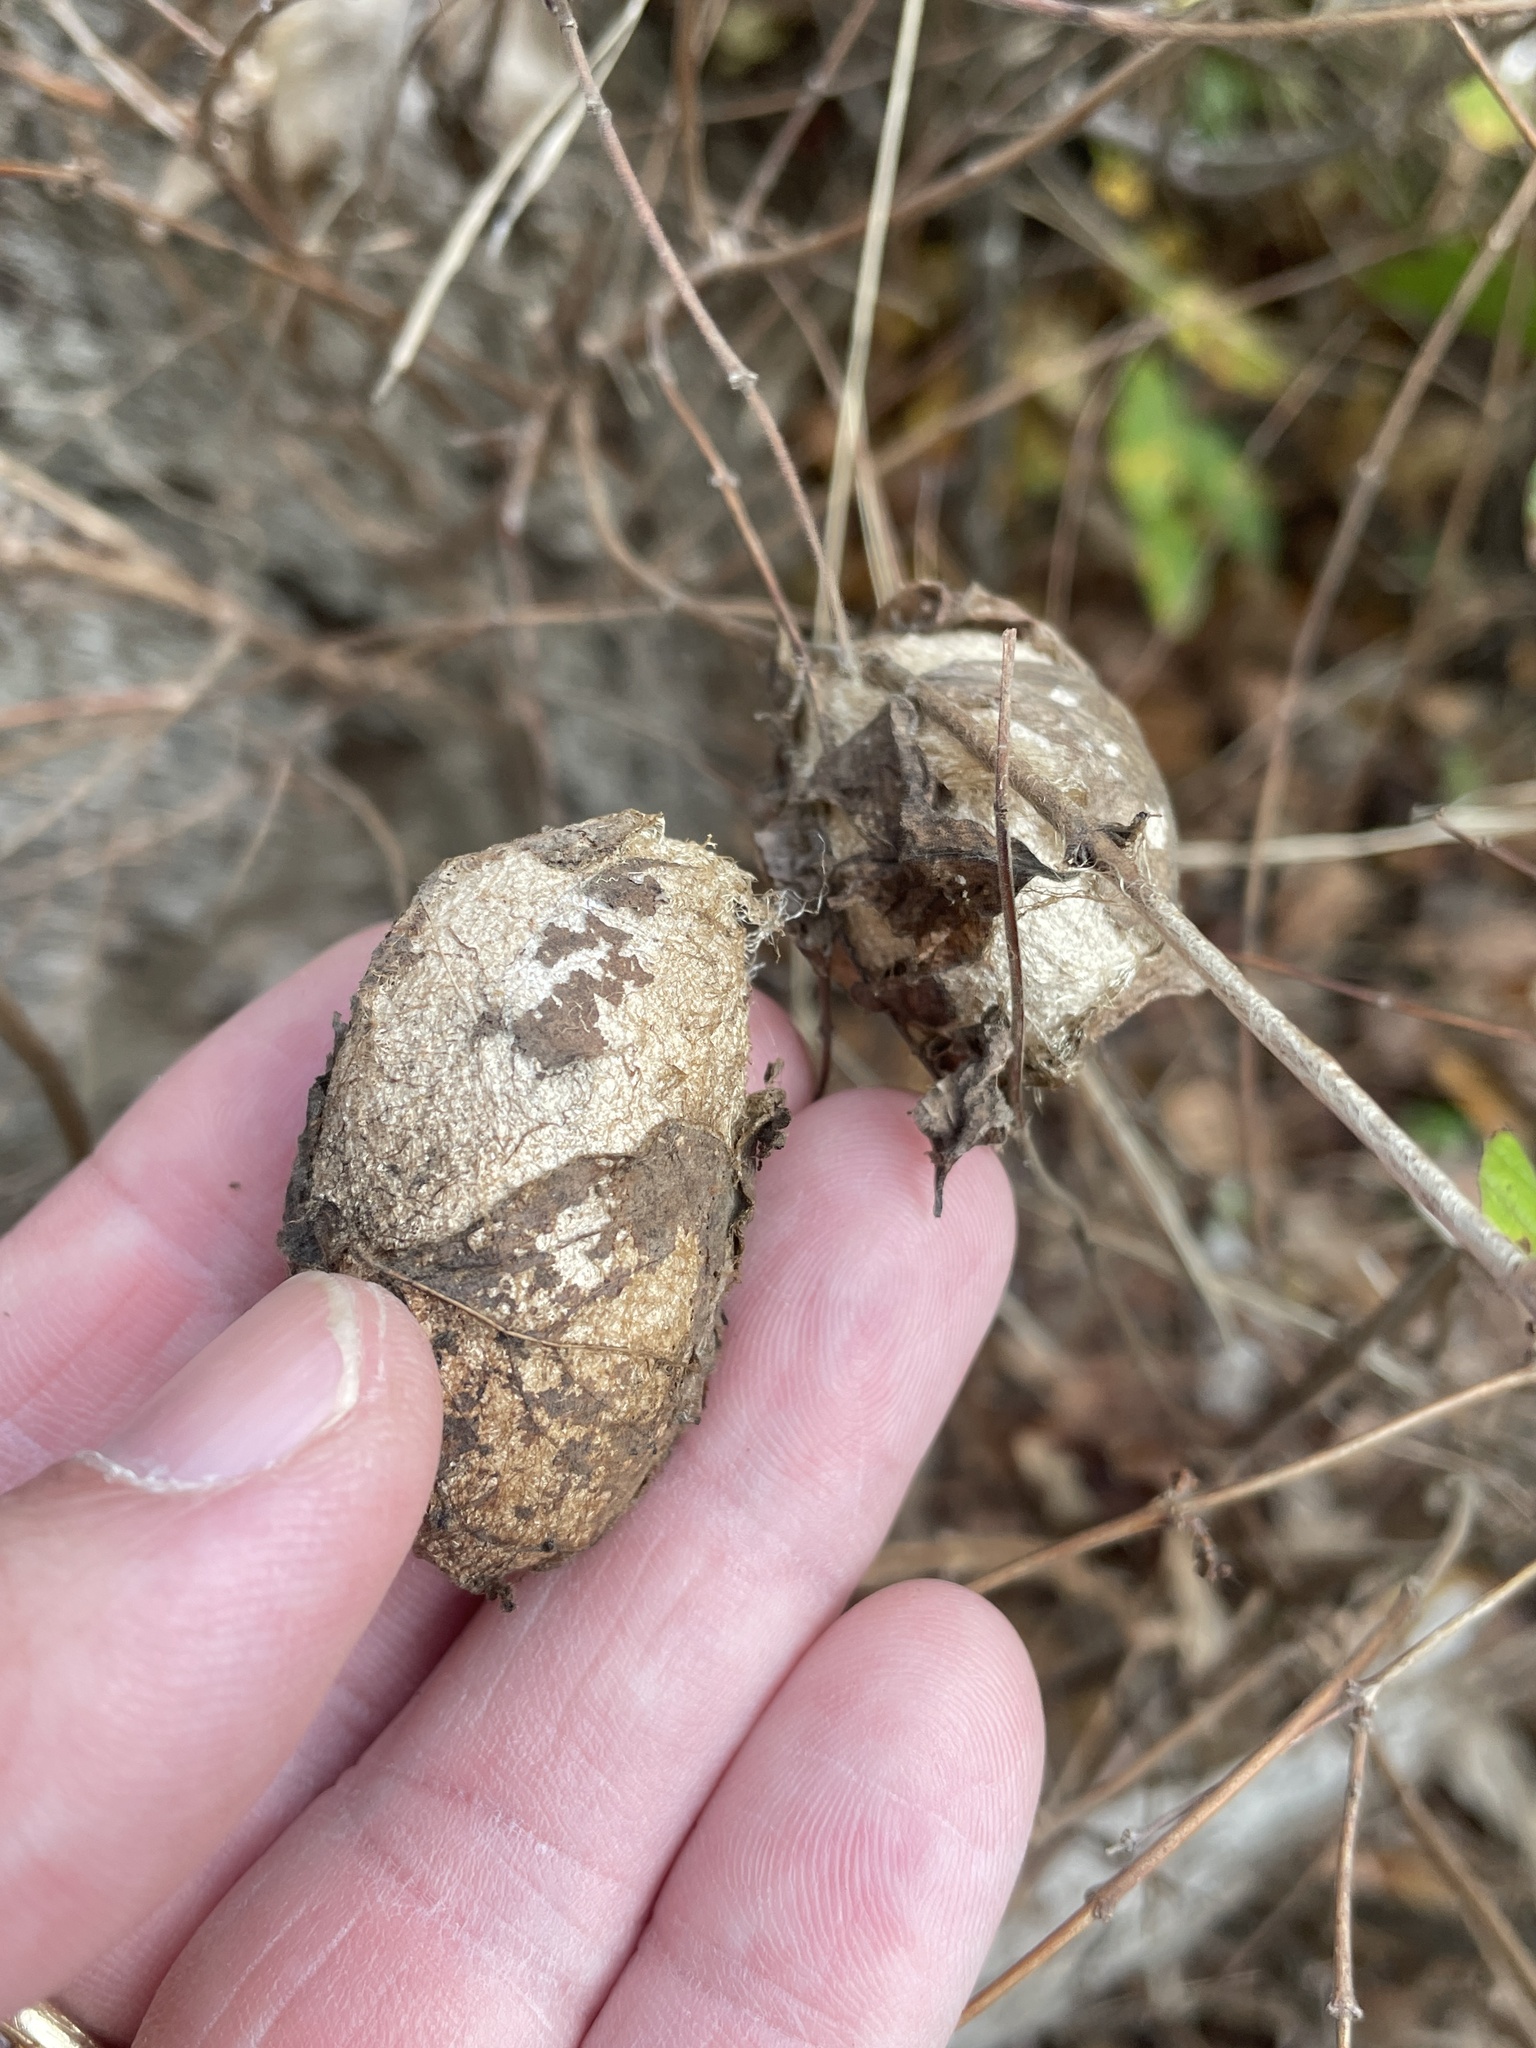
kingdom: Animalia
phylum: Arthropoda
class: Insecta
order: Lepidoptera
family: Saturniidae
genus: Antheraea
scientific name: Antheraea polyphemus
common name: Polyphemus moth
